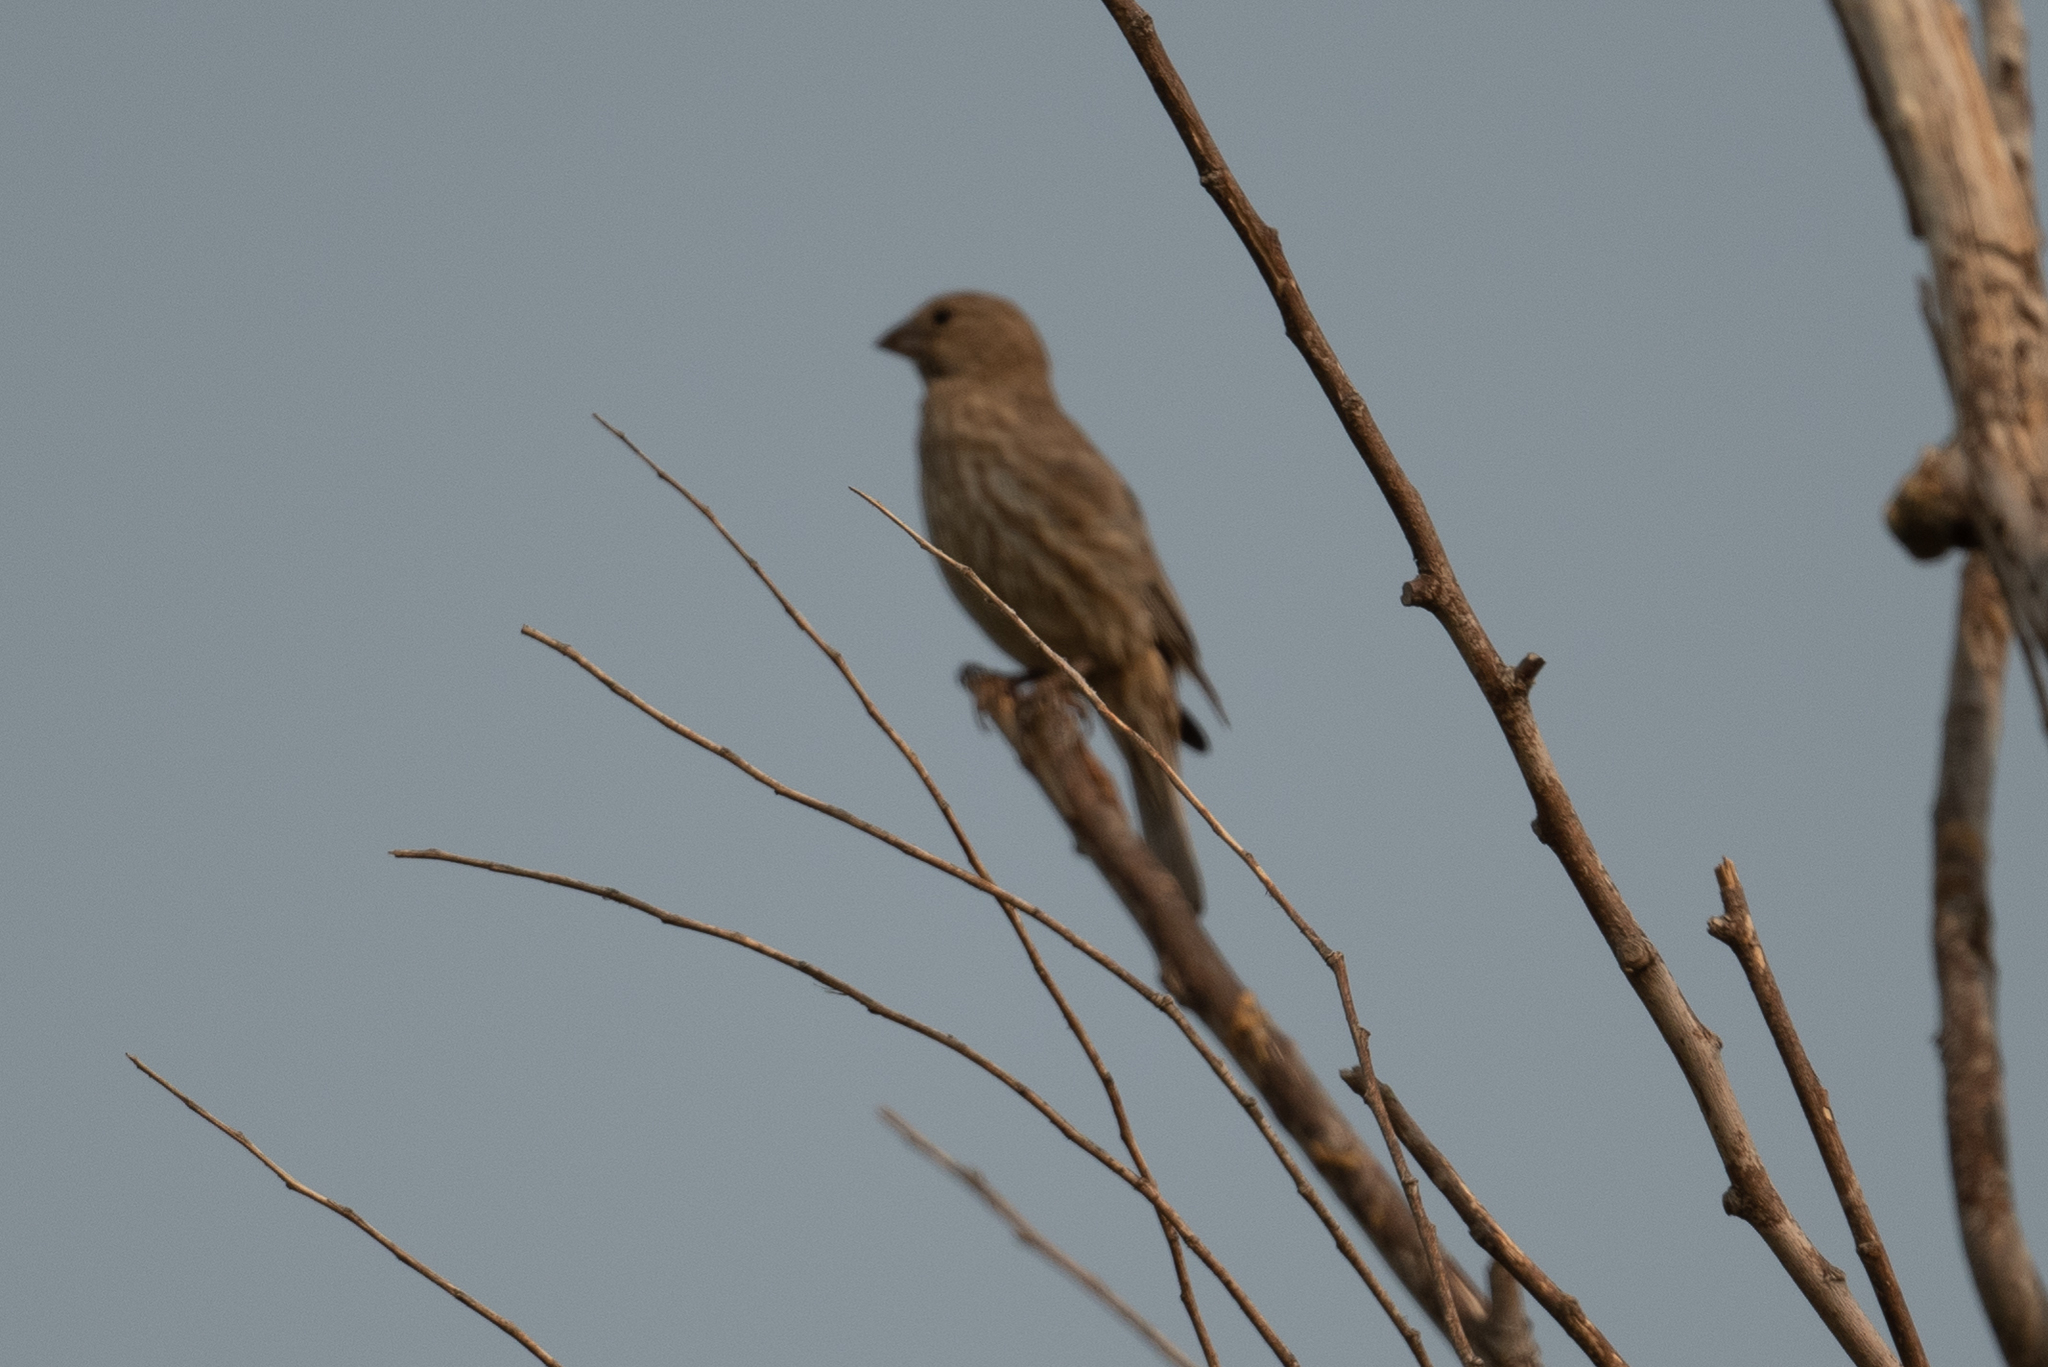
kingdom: Animalia
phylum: Chordata
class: Aves
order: Passeriformes
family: Fringillidae
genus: Haemorhous
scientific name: Haemorhous mexicanus
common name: House finch
